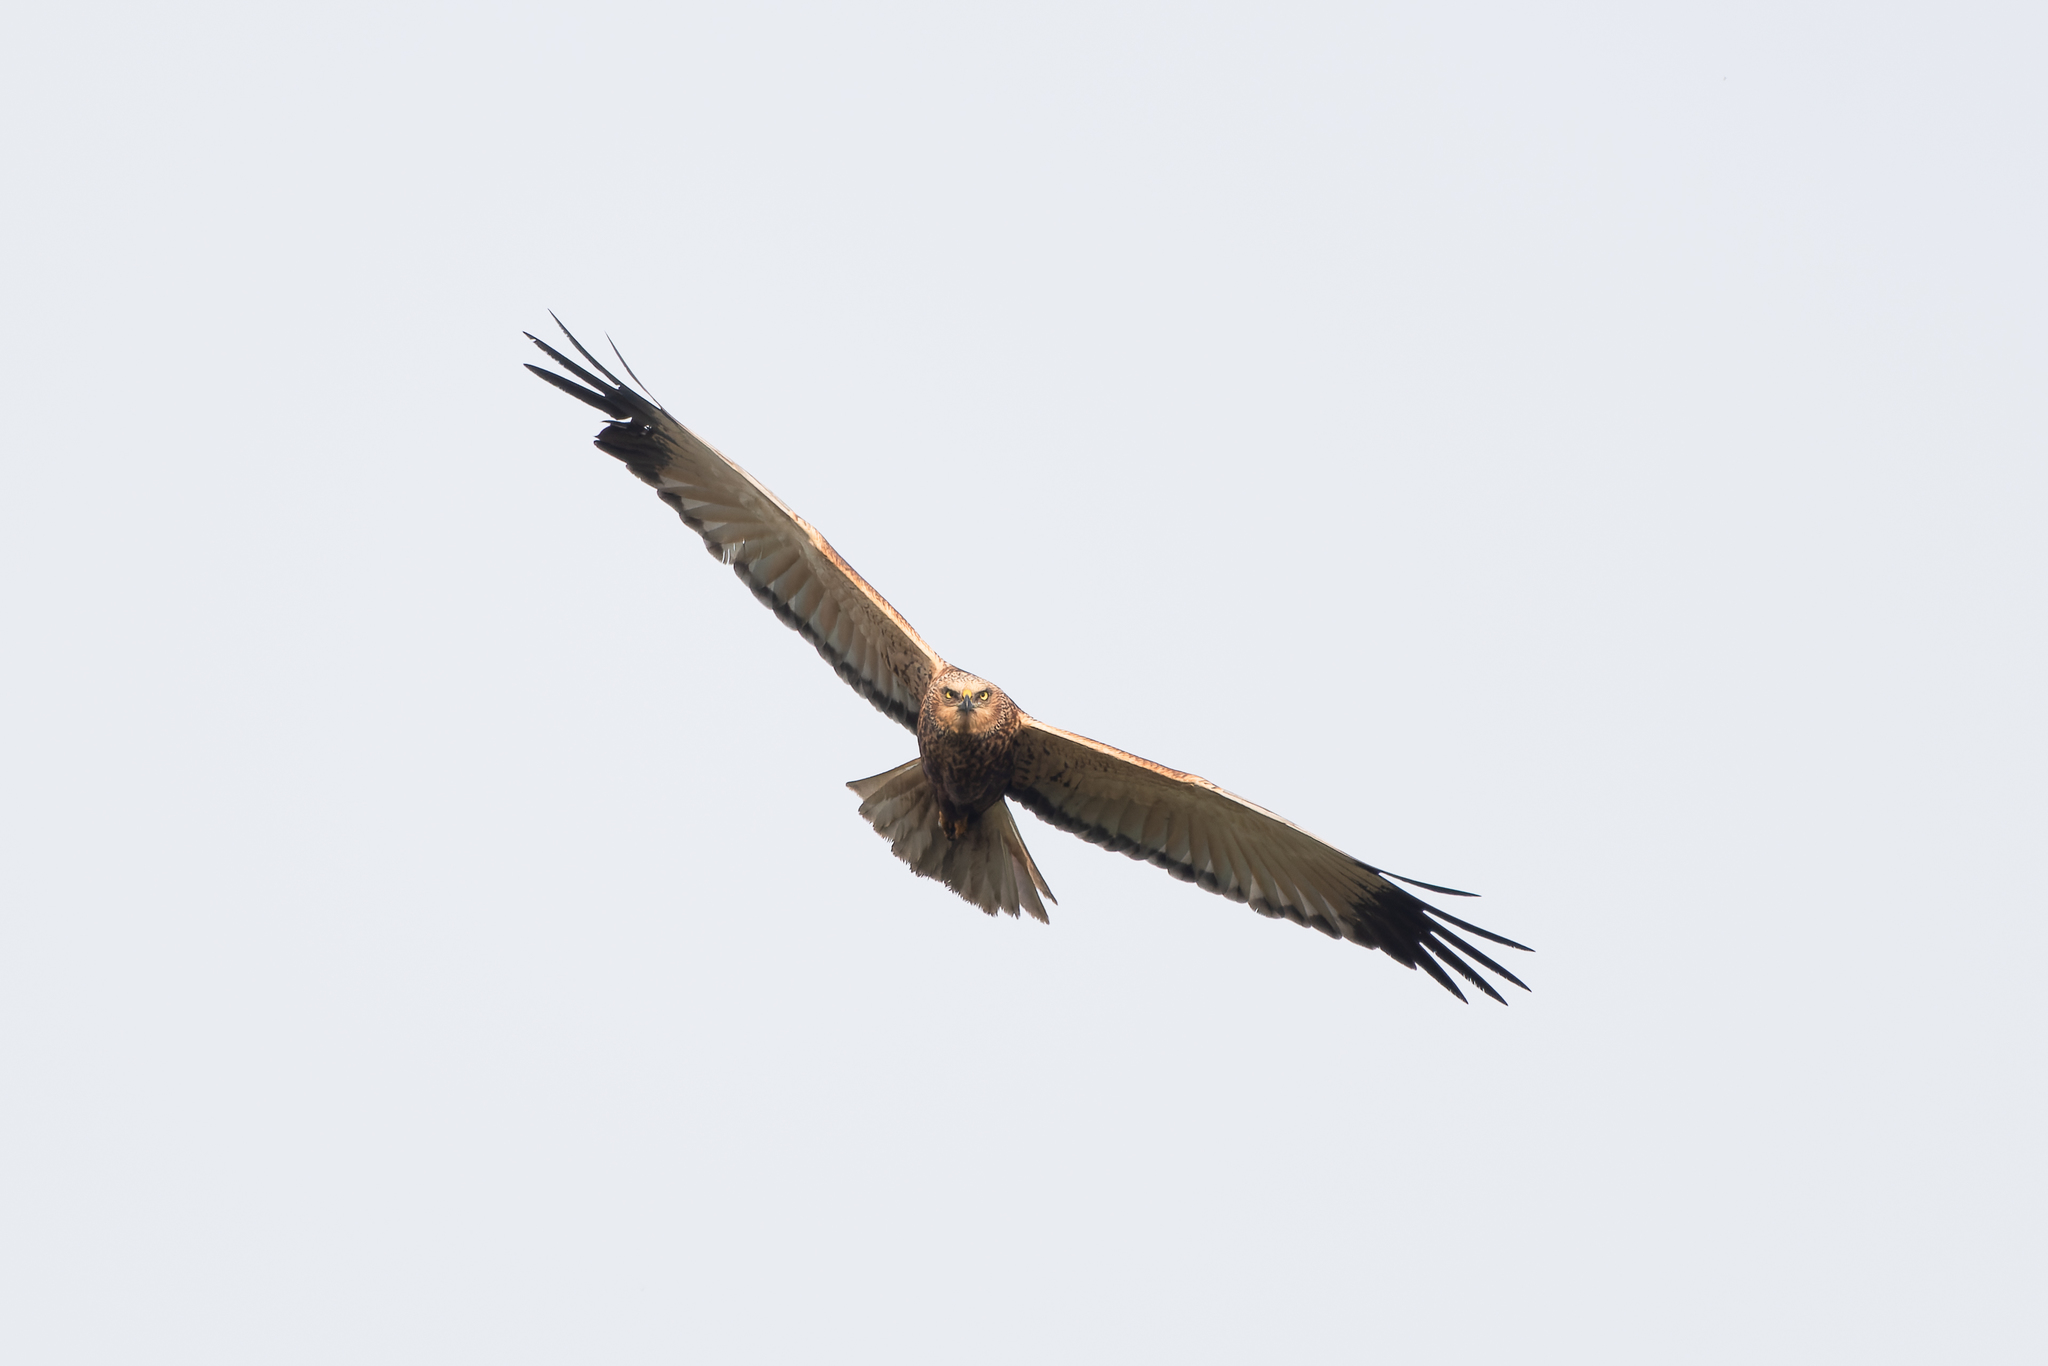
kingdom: Animalia
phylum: Chordata
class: Aves
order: Accipitriformes
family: Accipitridae
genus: Circus
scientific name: Circus aeruginosus
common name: Western marsh harrier
